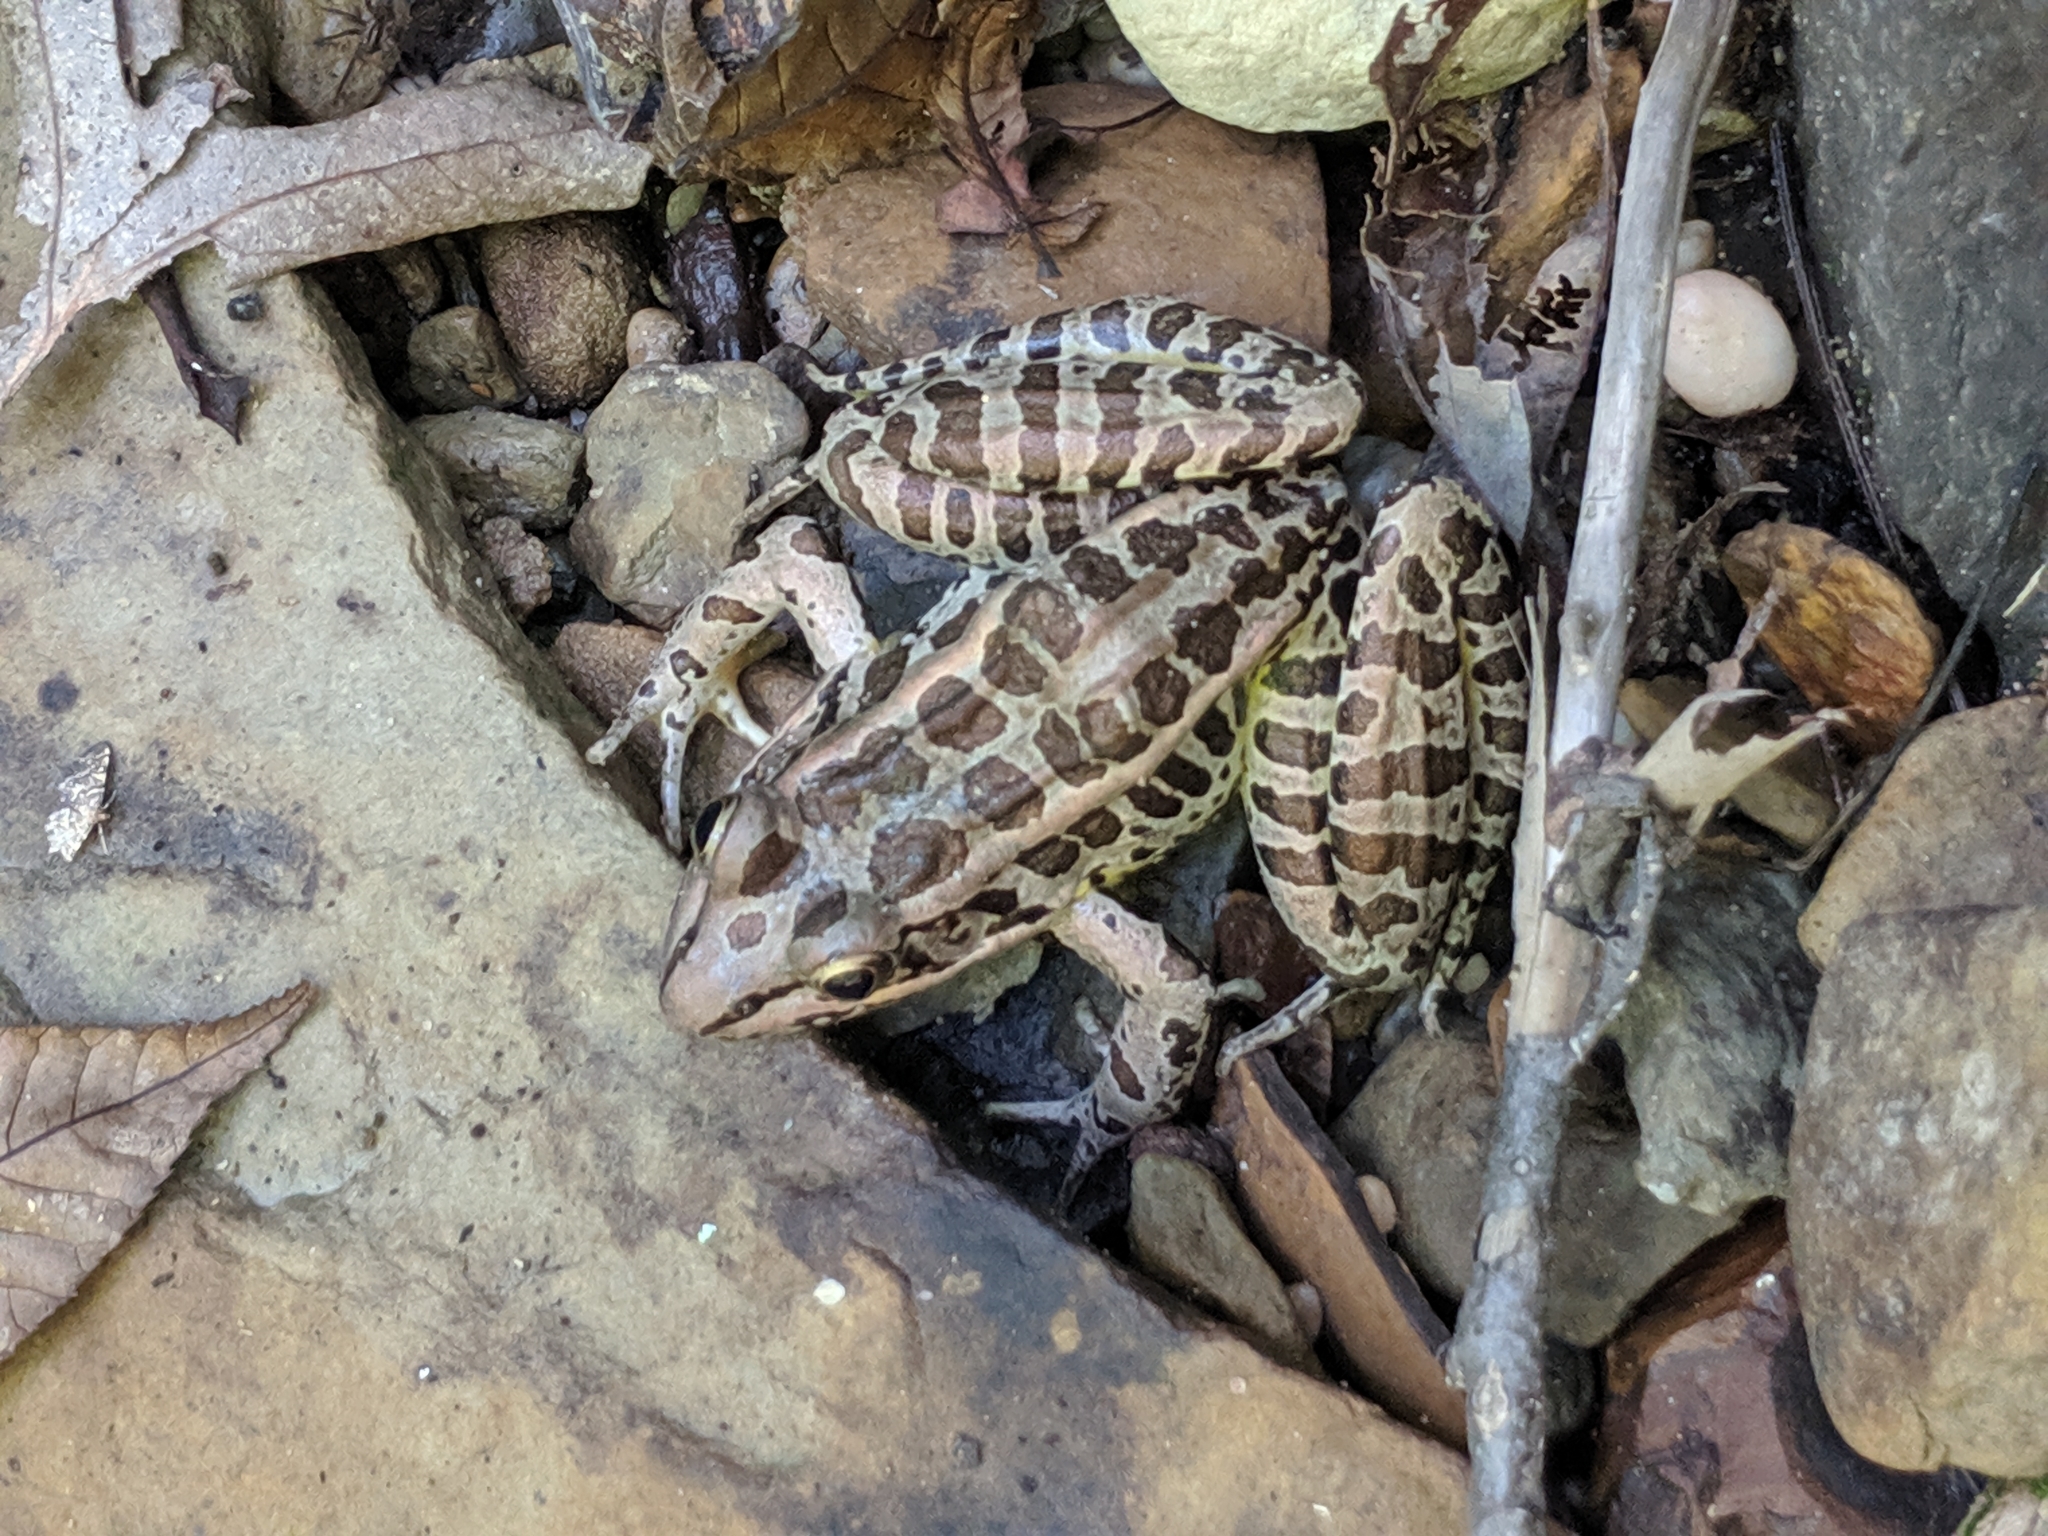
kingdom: Animalia
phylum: Chordata
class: Amphibia
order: Anura
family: Ranidae
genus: Lithobates
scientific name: Lithobates palustris
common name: Pickerel frog
